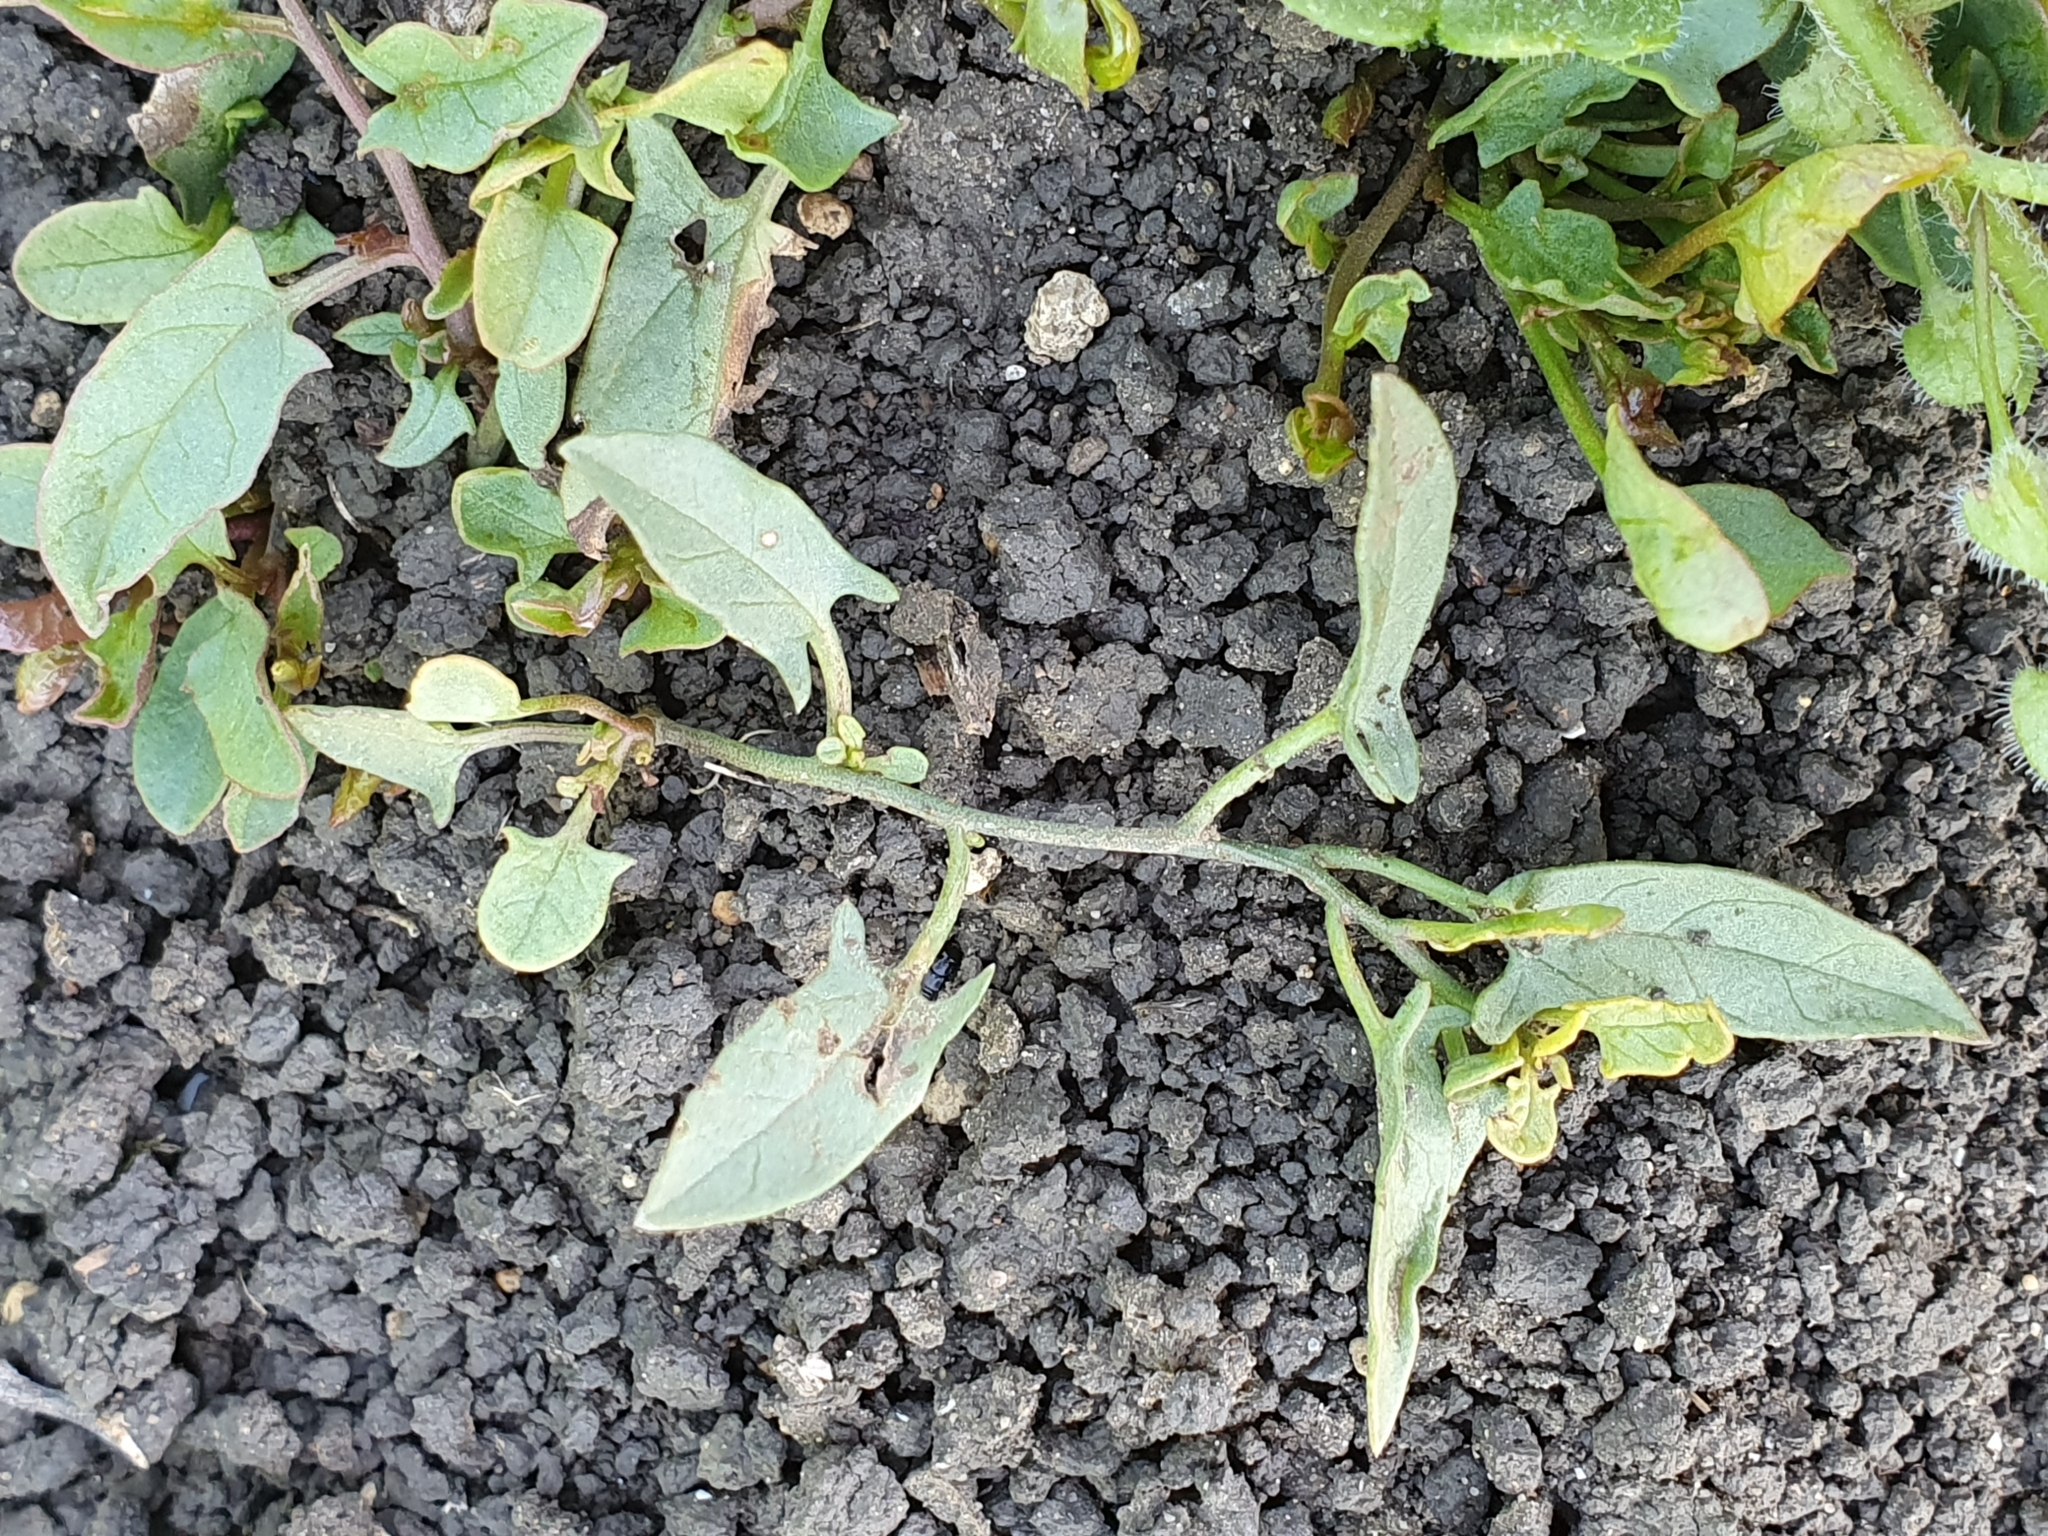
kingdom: Plantae
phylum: Tracheophyta
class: Magnoliopsida
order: Solanales
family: Convolvulaceae
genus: Convolvulus
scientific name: Convolvulus arvensis
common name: Field bindweed
